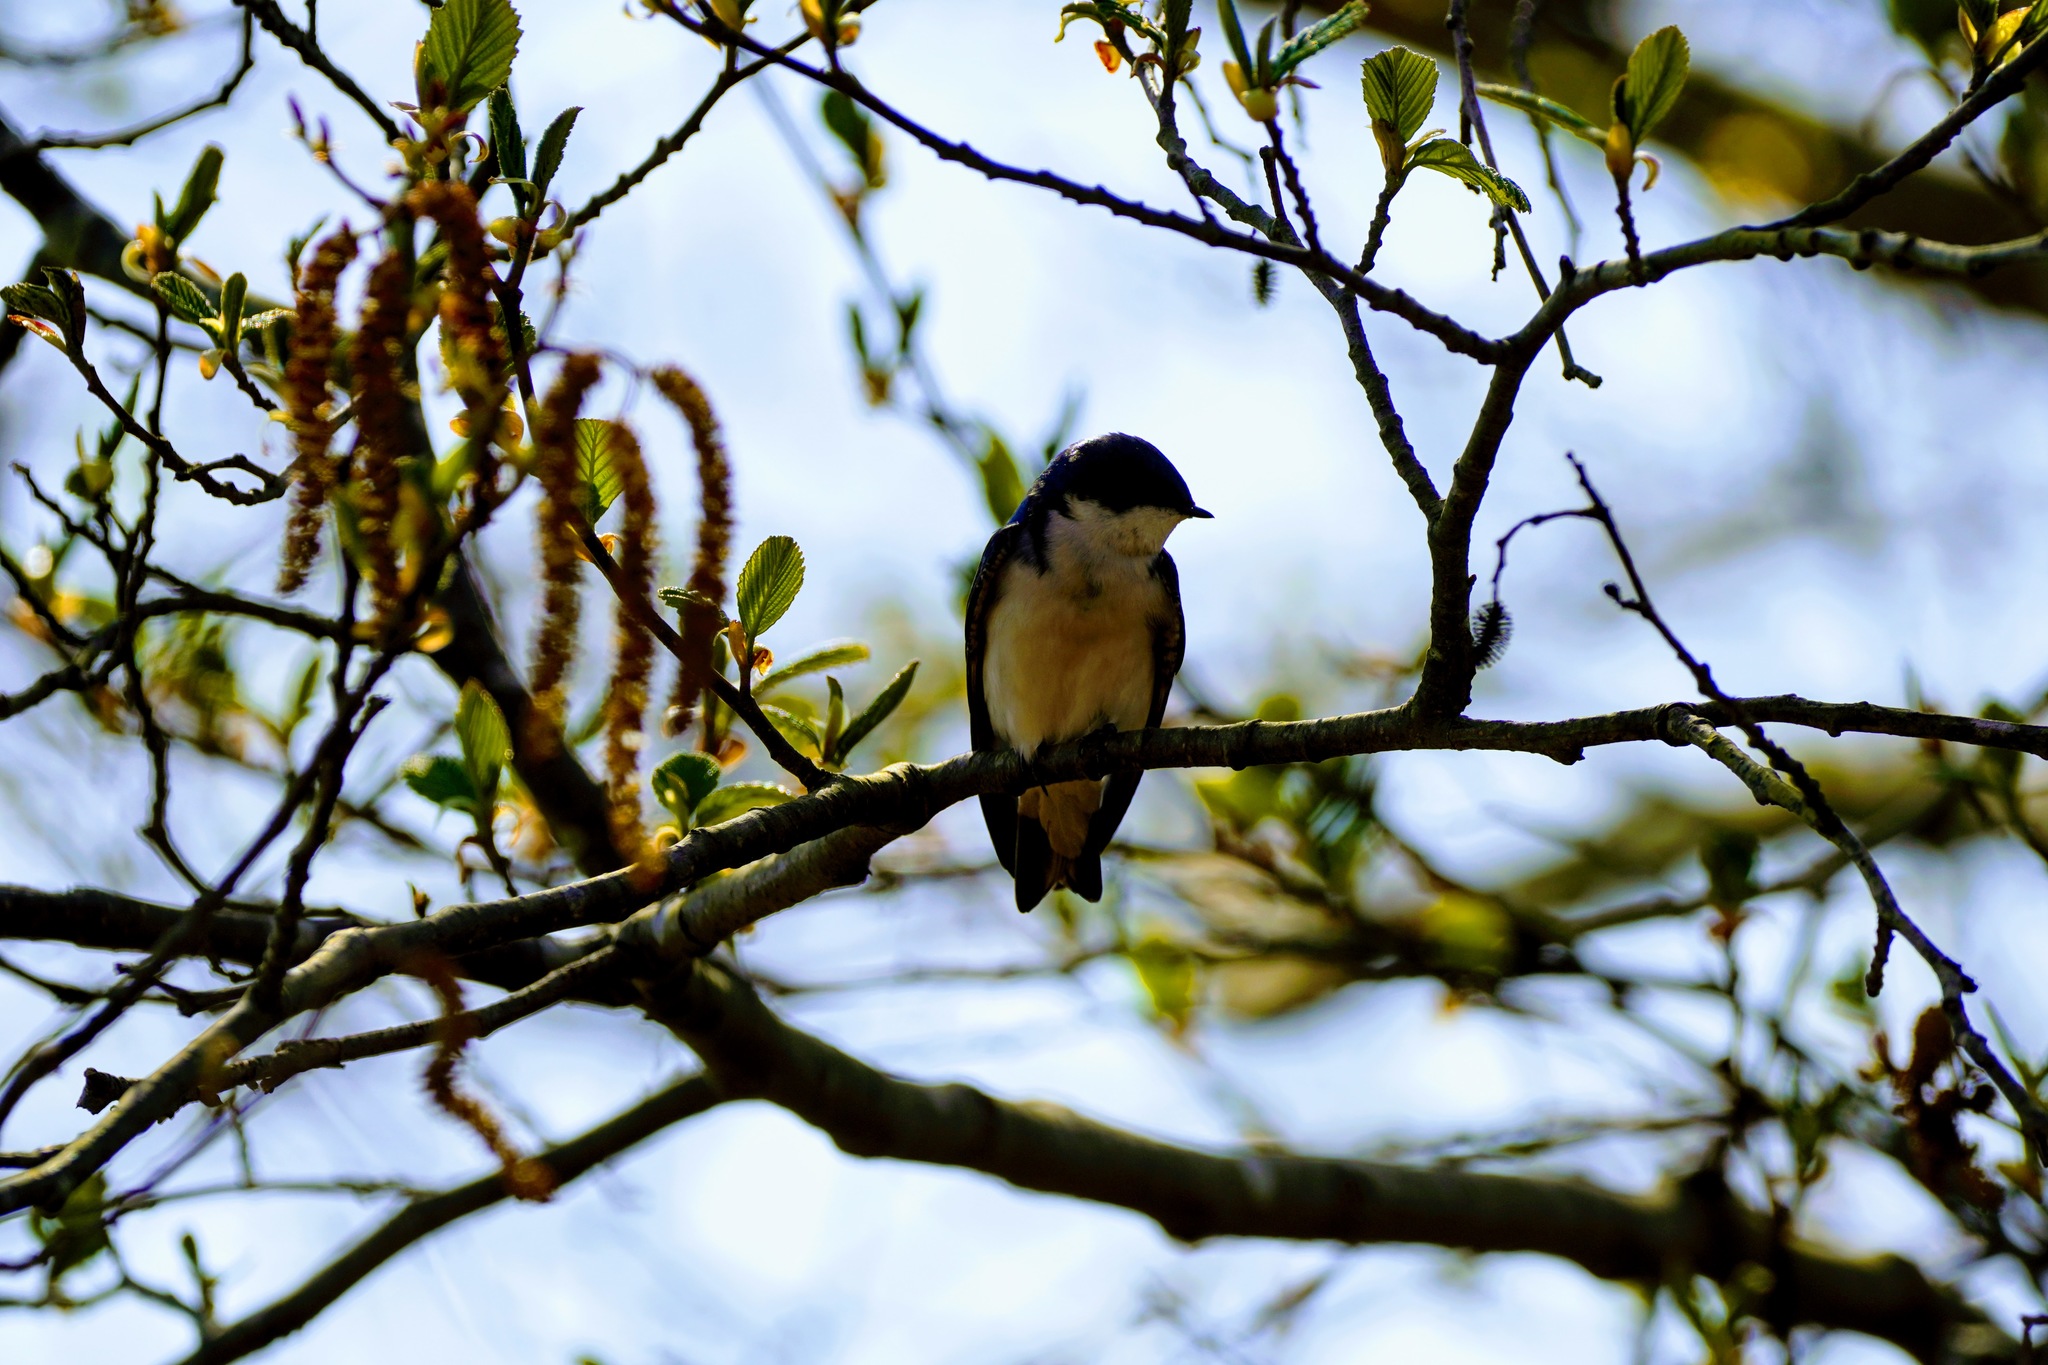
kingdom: Animalia
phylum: Chordata
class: Aves
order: Passeriformes
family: Hirundinidae
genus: Tachycineta
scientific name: Tachycineta bicolor
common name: Tree swallow
